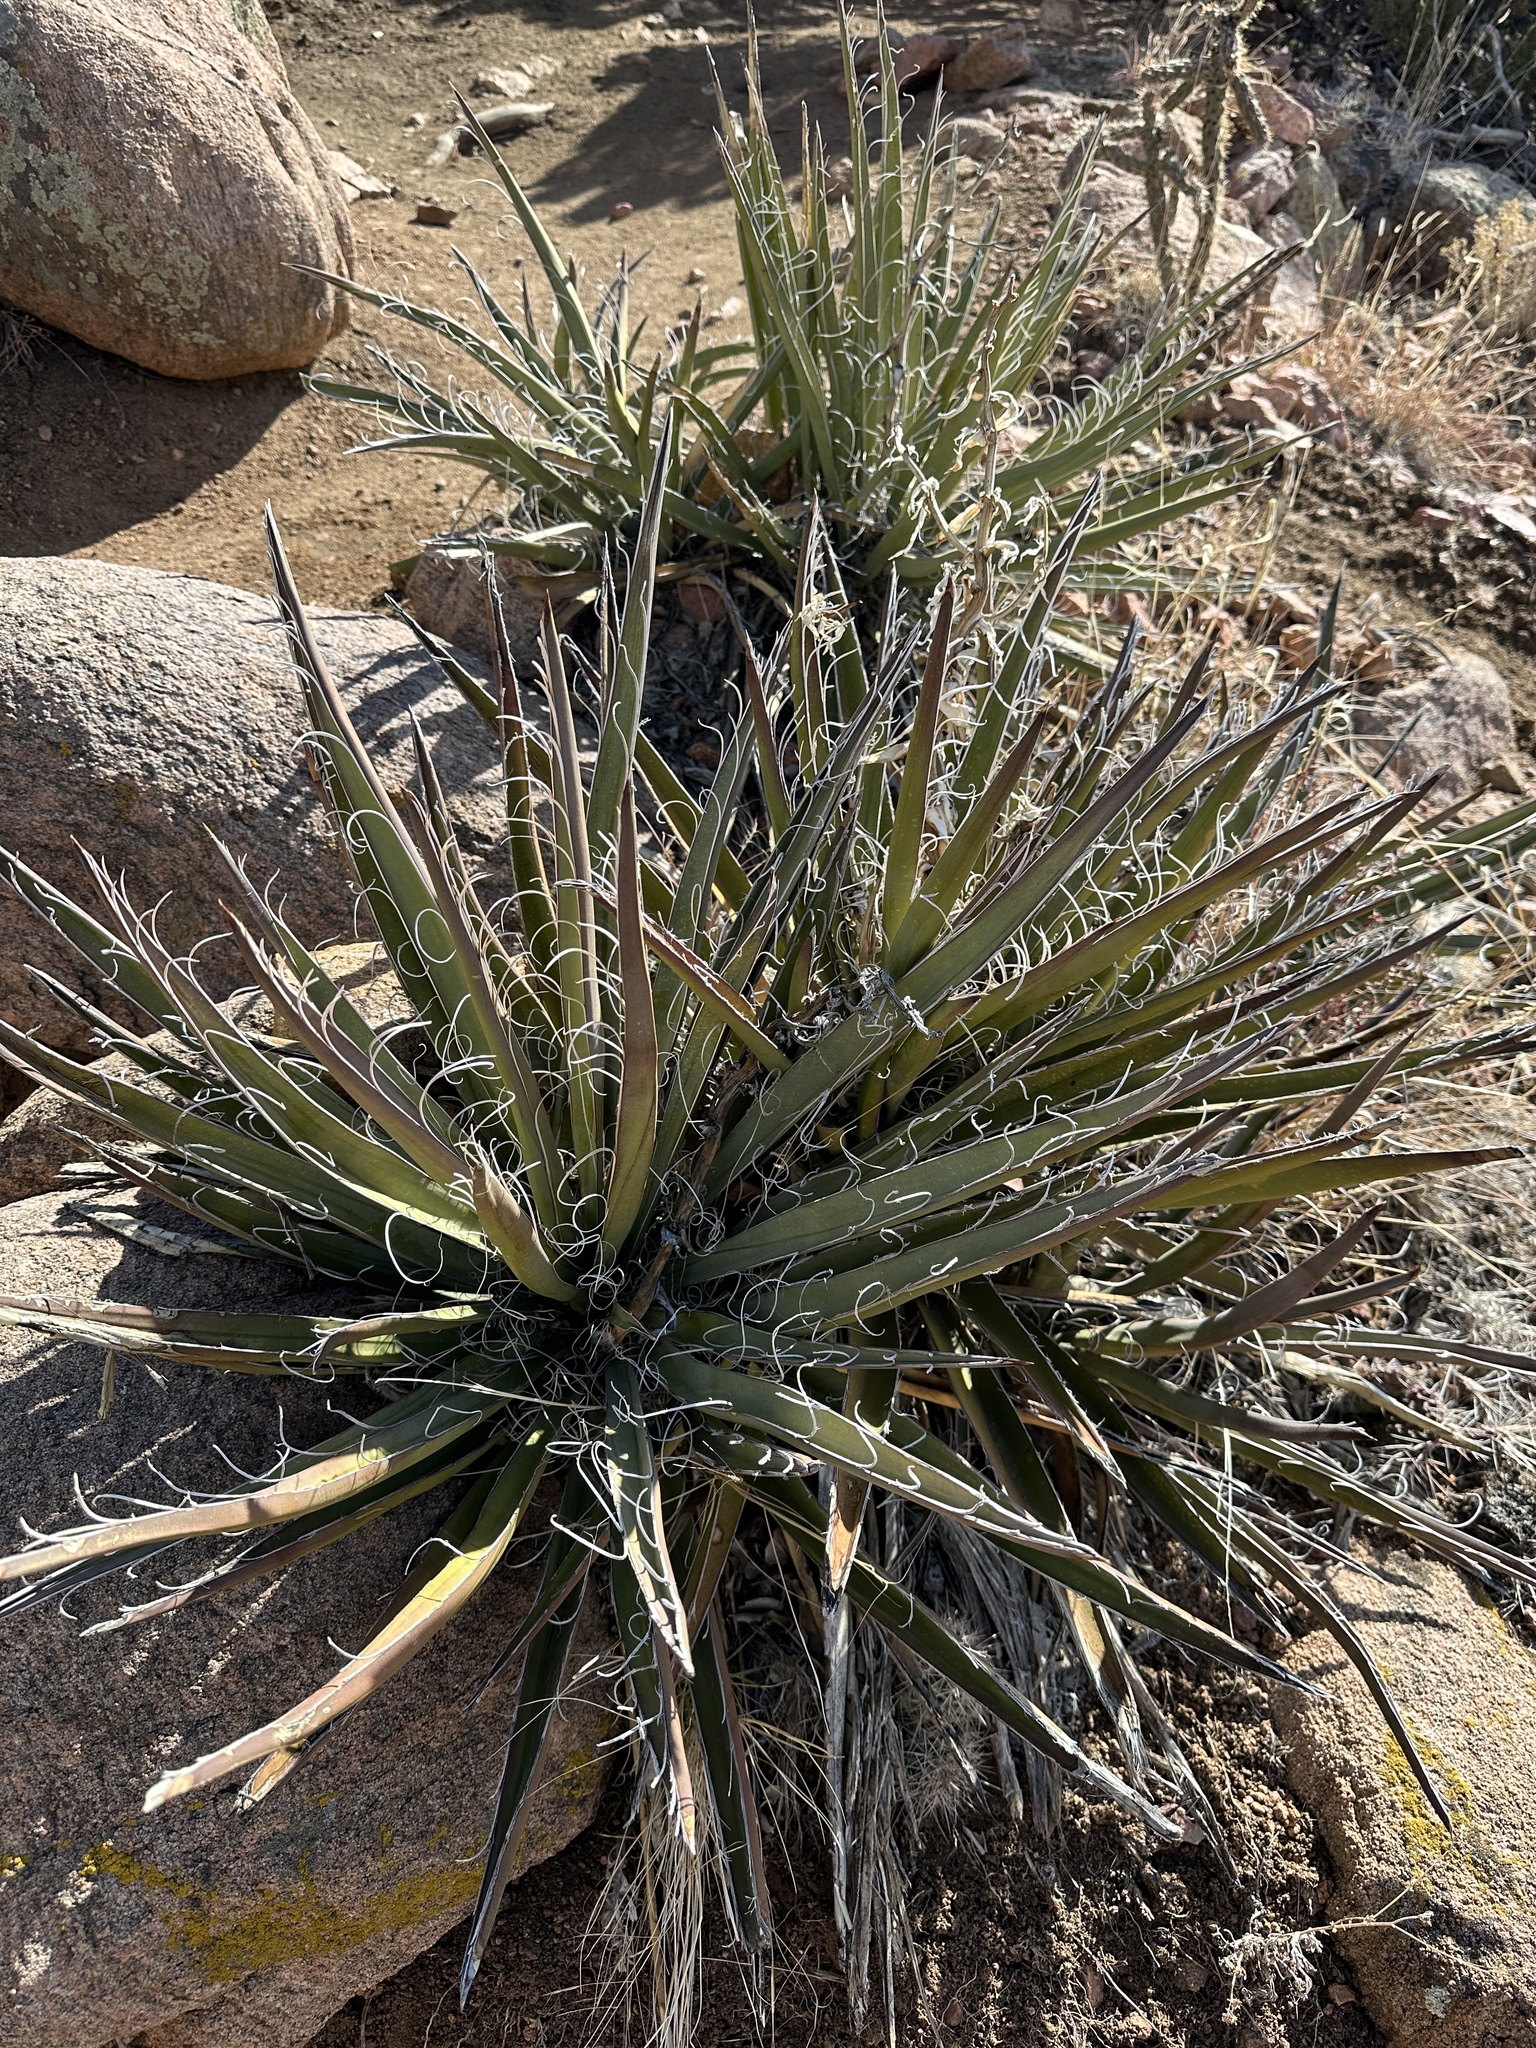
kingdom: Plantae
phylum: Tracheophyta
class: Liliopsida
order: Asparagales
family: Asparagaceae
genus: Yucca
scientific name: Yucca baccata
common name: Banana yucca
